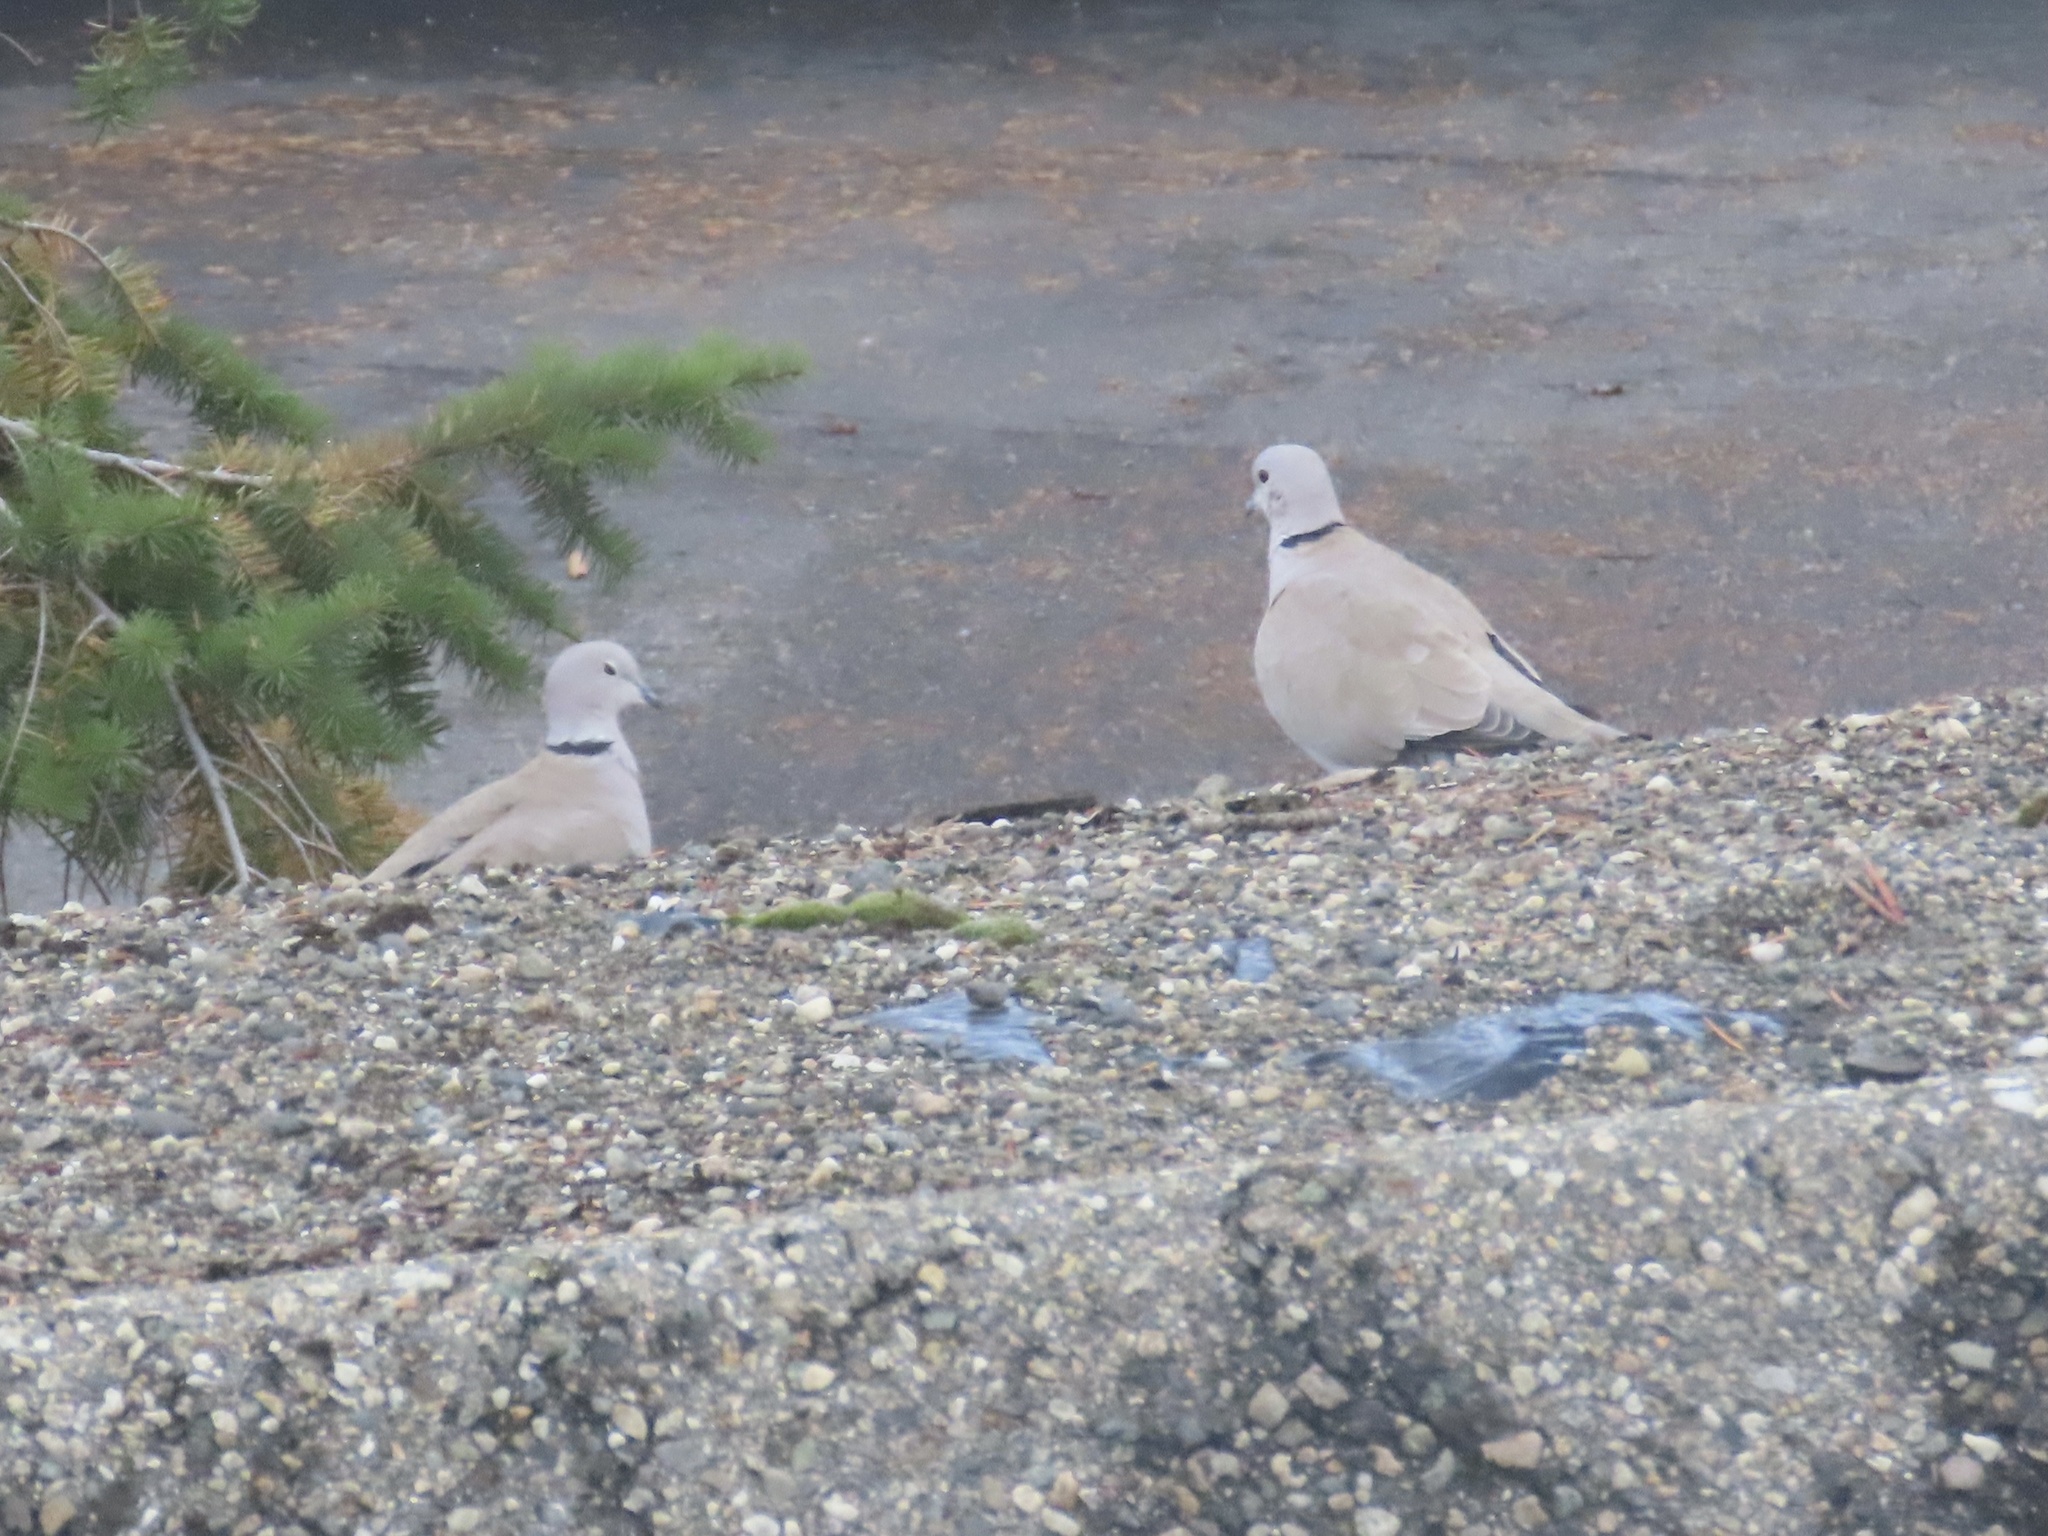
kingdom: Animalia
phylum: Chordata
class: Aves
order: Columbiformes
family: Columbidae
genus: Streptopelia
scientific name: Streptopelia decaocto
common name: Eurasian collared dove
